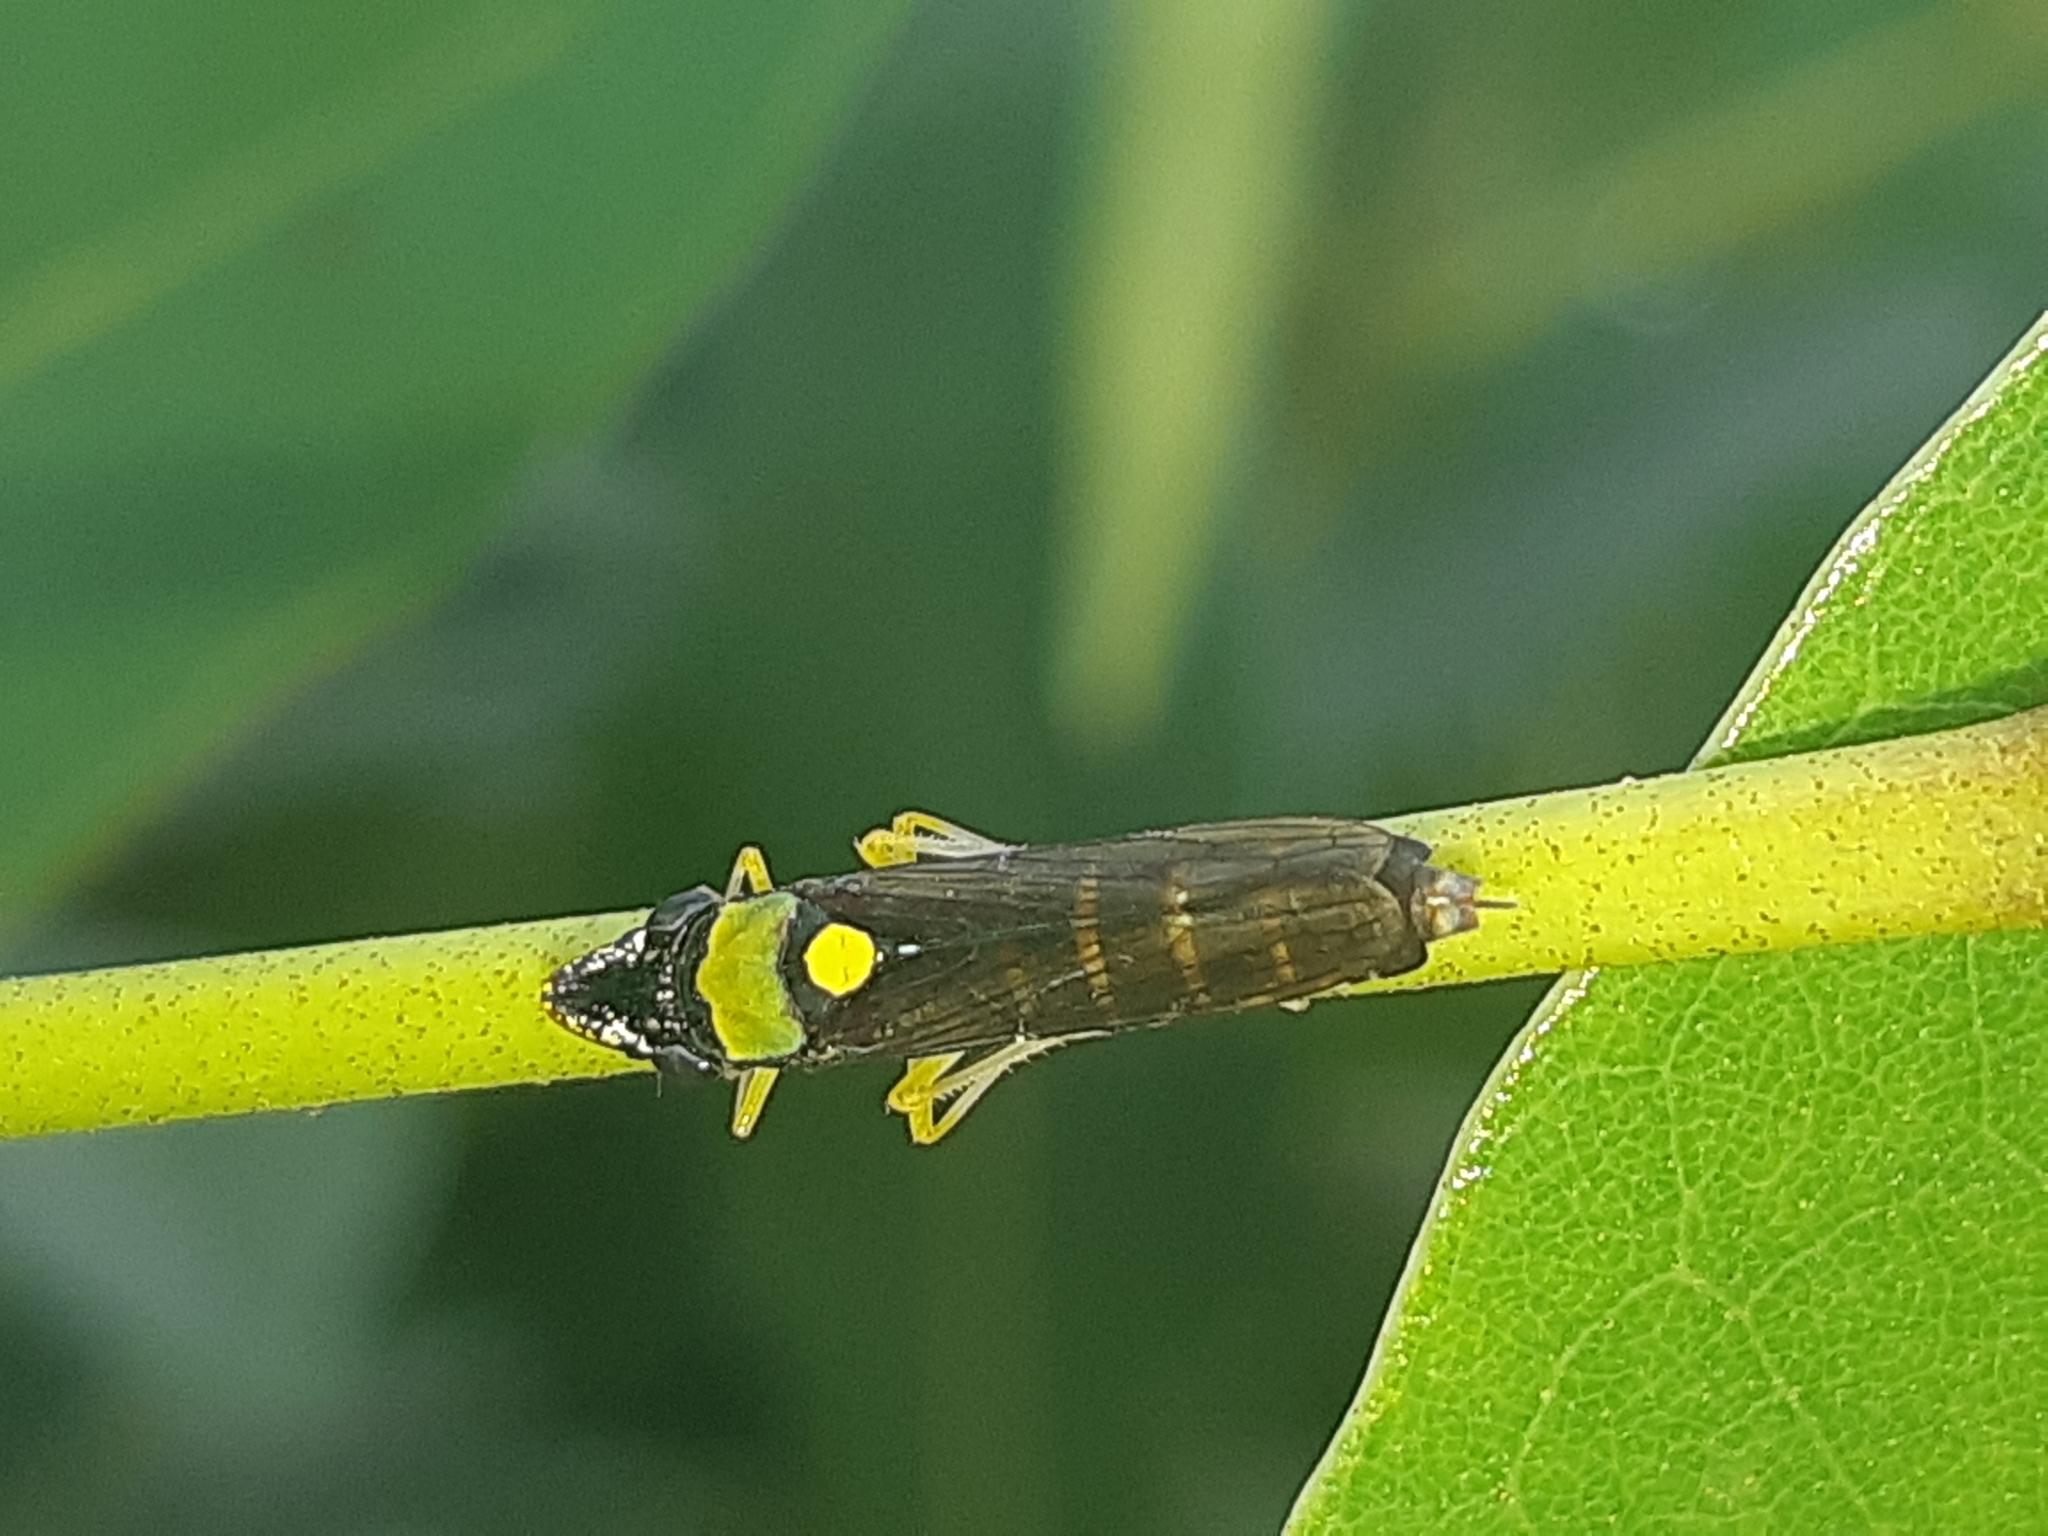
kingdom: Animalia
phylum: Arthropoda
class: Insecta
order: Hemiptera
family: Cicadellidae
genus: Acrogonia
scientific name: Acrogonia flavoscutellata
